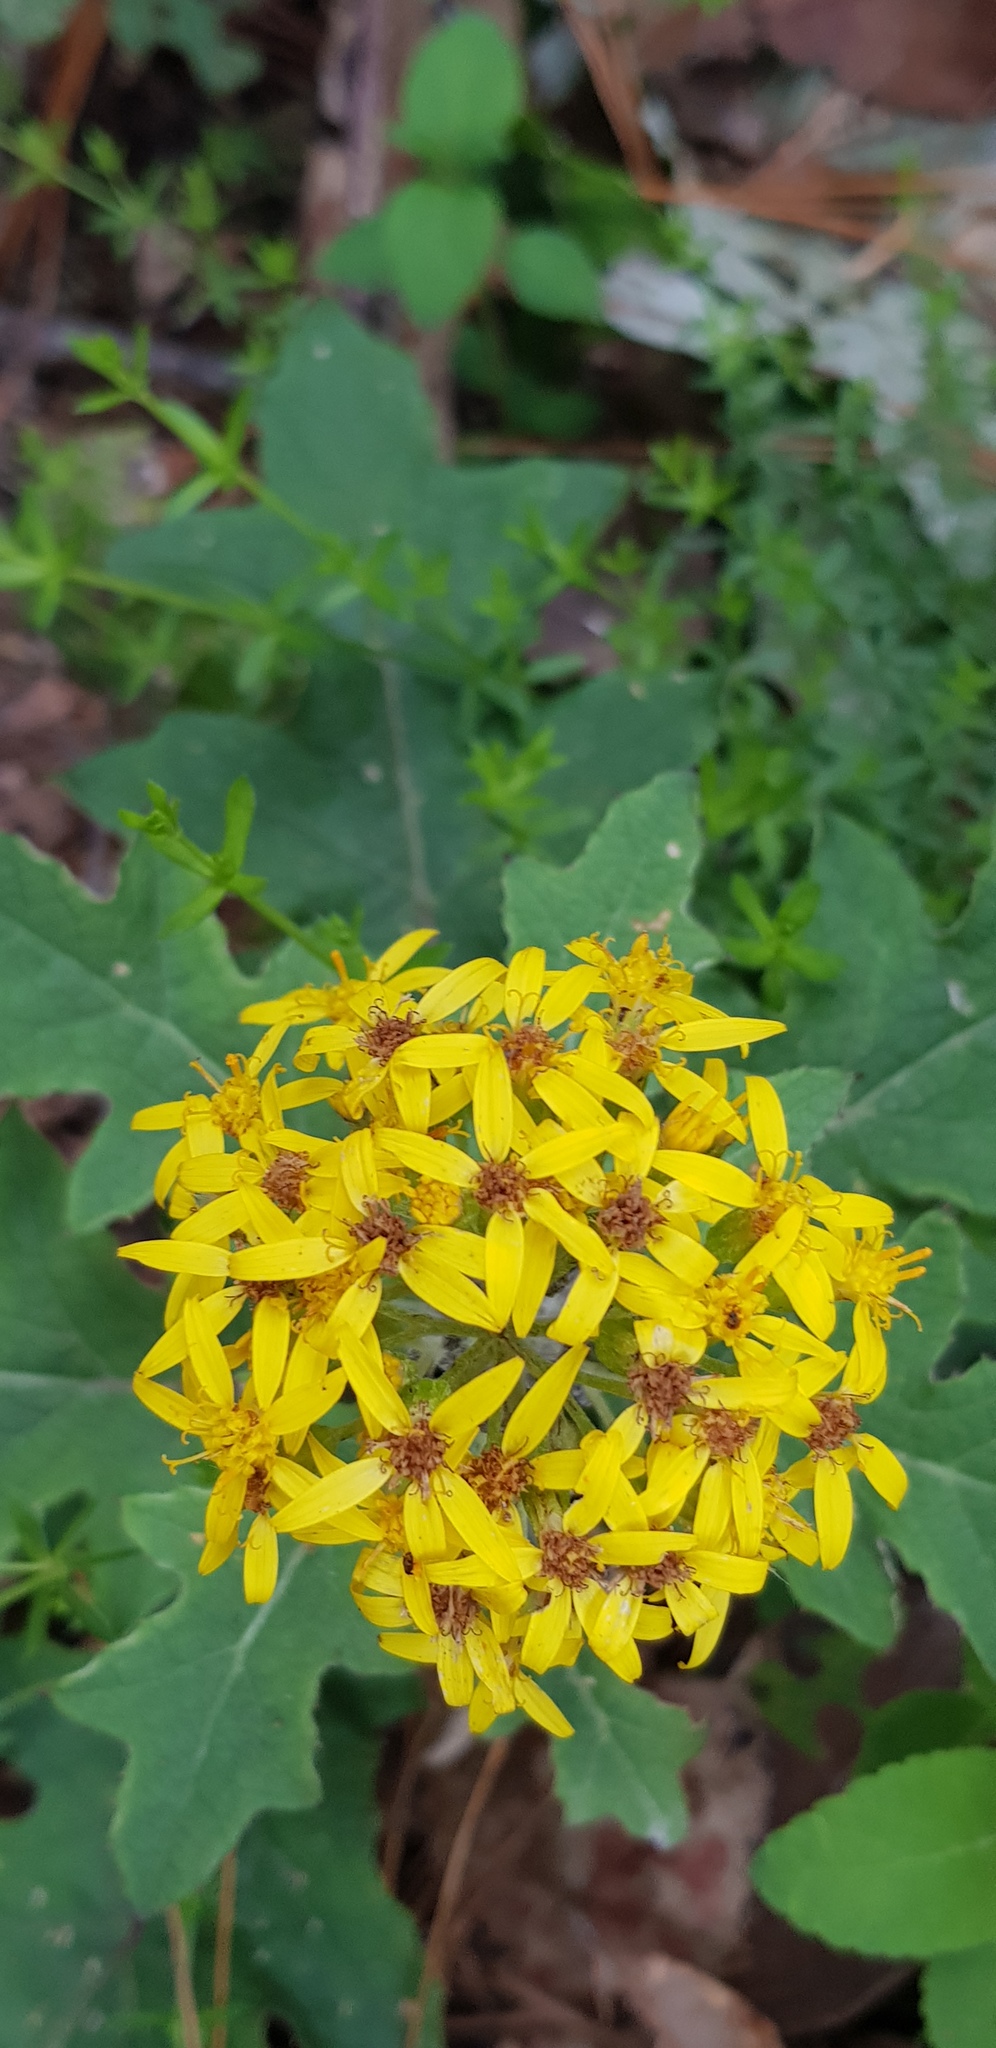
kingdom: Plantae
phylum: Tracheophyta
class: Magnoliopsida
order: Asterales
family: Asteraceae
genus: Roldana
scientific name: Roldana candicans
